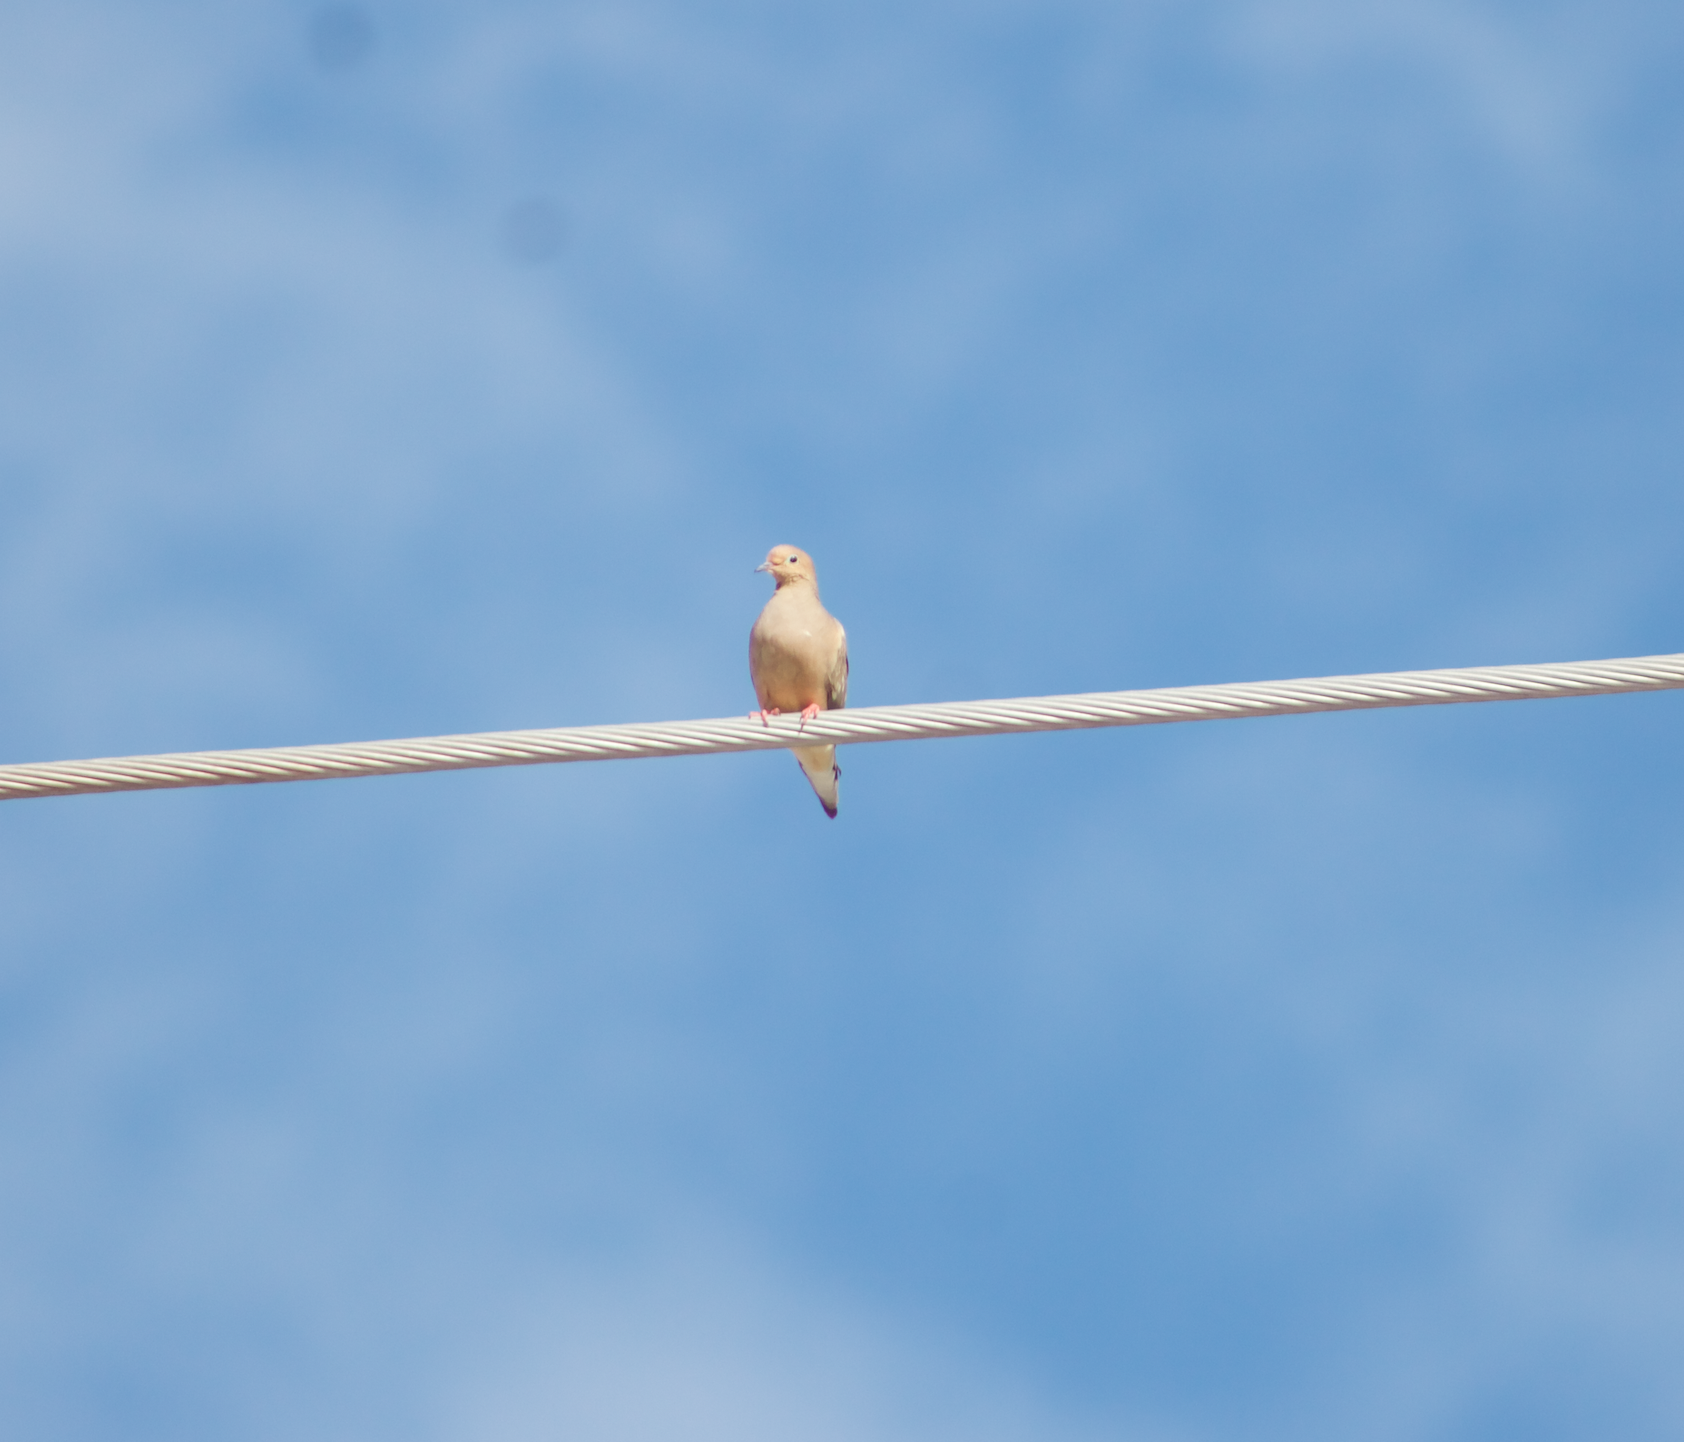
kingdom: Animalia
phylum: Chordata
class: Aves
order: Columbiformes
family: Columbidae
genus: Zenaida
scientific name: Zenaida macroura
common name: Mourning dove
